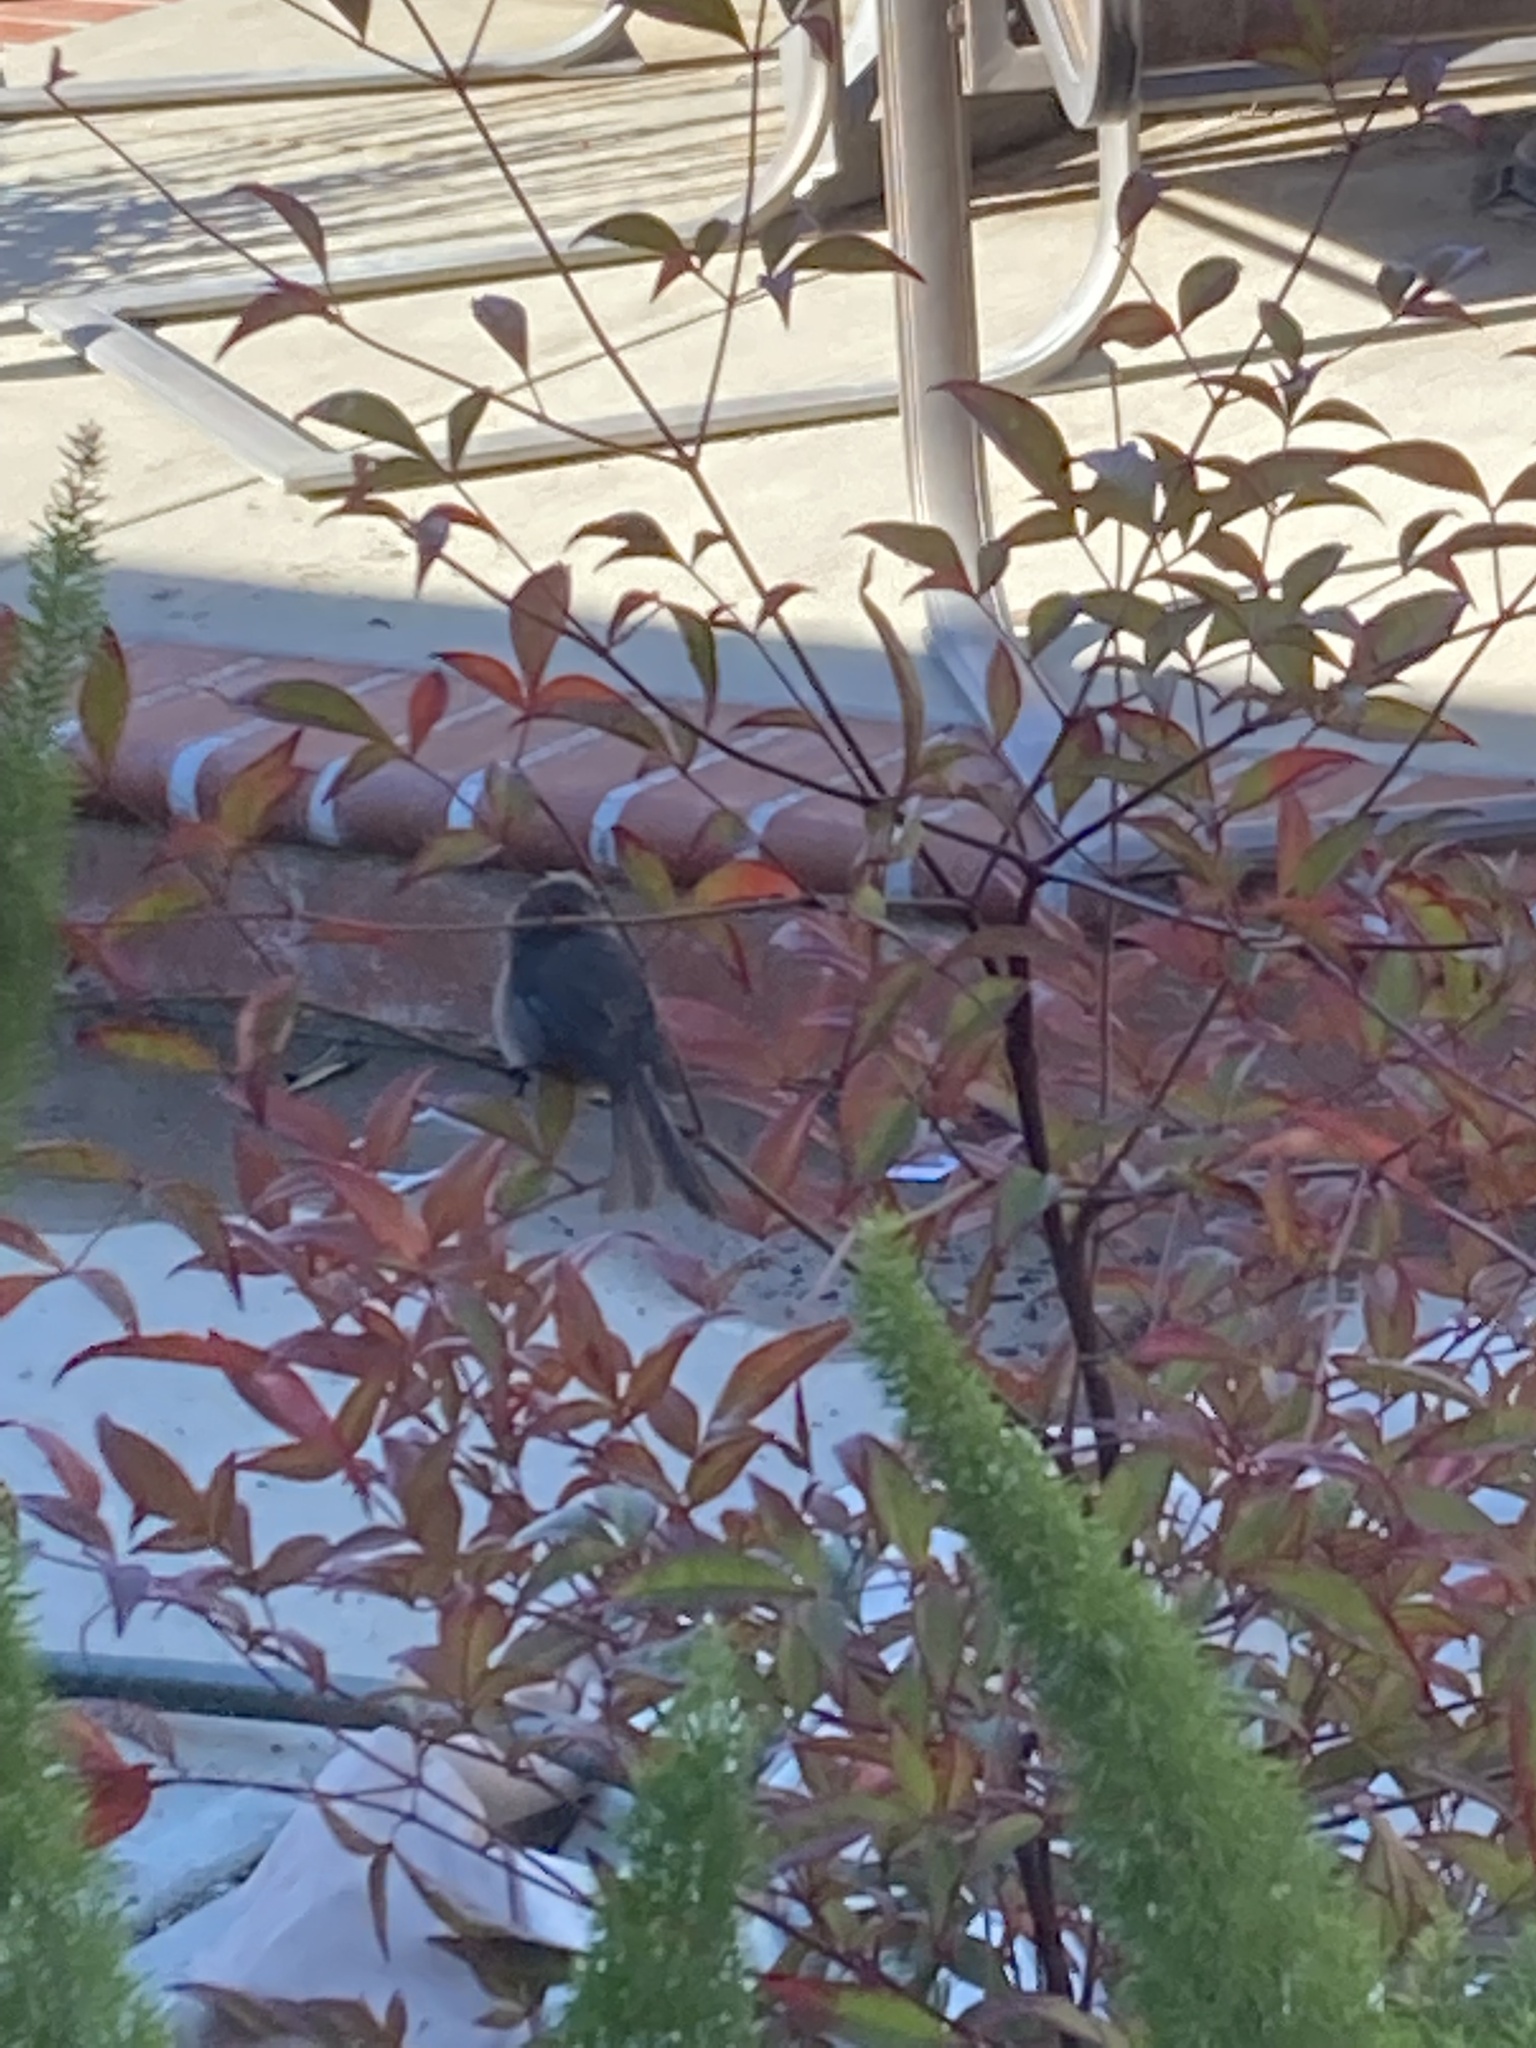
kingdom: Animalia
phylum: Chordata
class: Aves
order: Passeriformes
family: Aegithalidae
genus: Psaltriparus
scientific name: Psaltriparus minimus
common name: American bushtit
